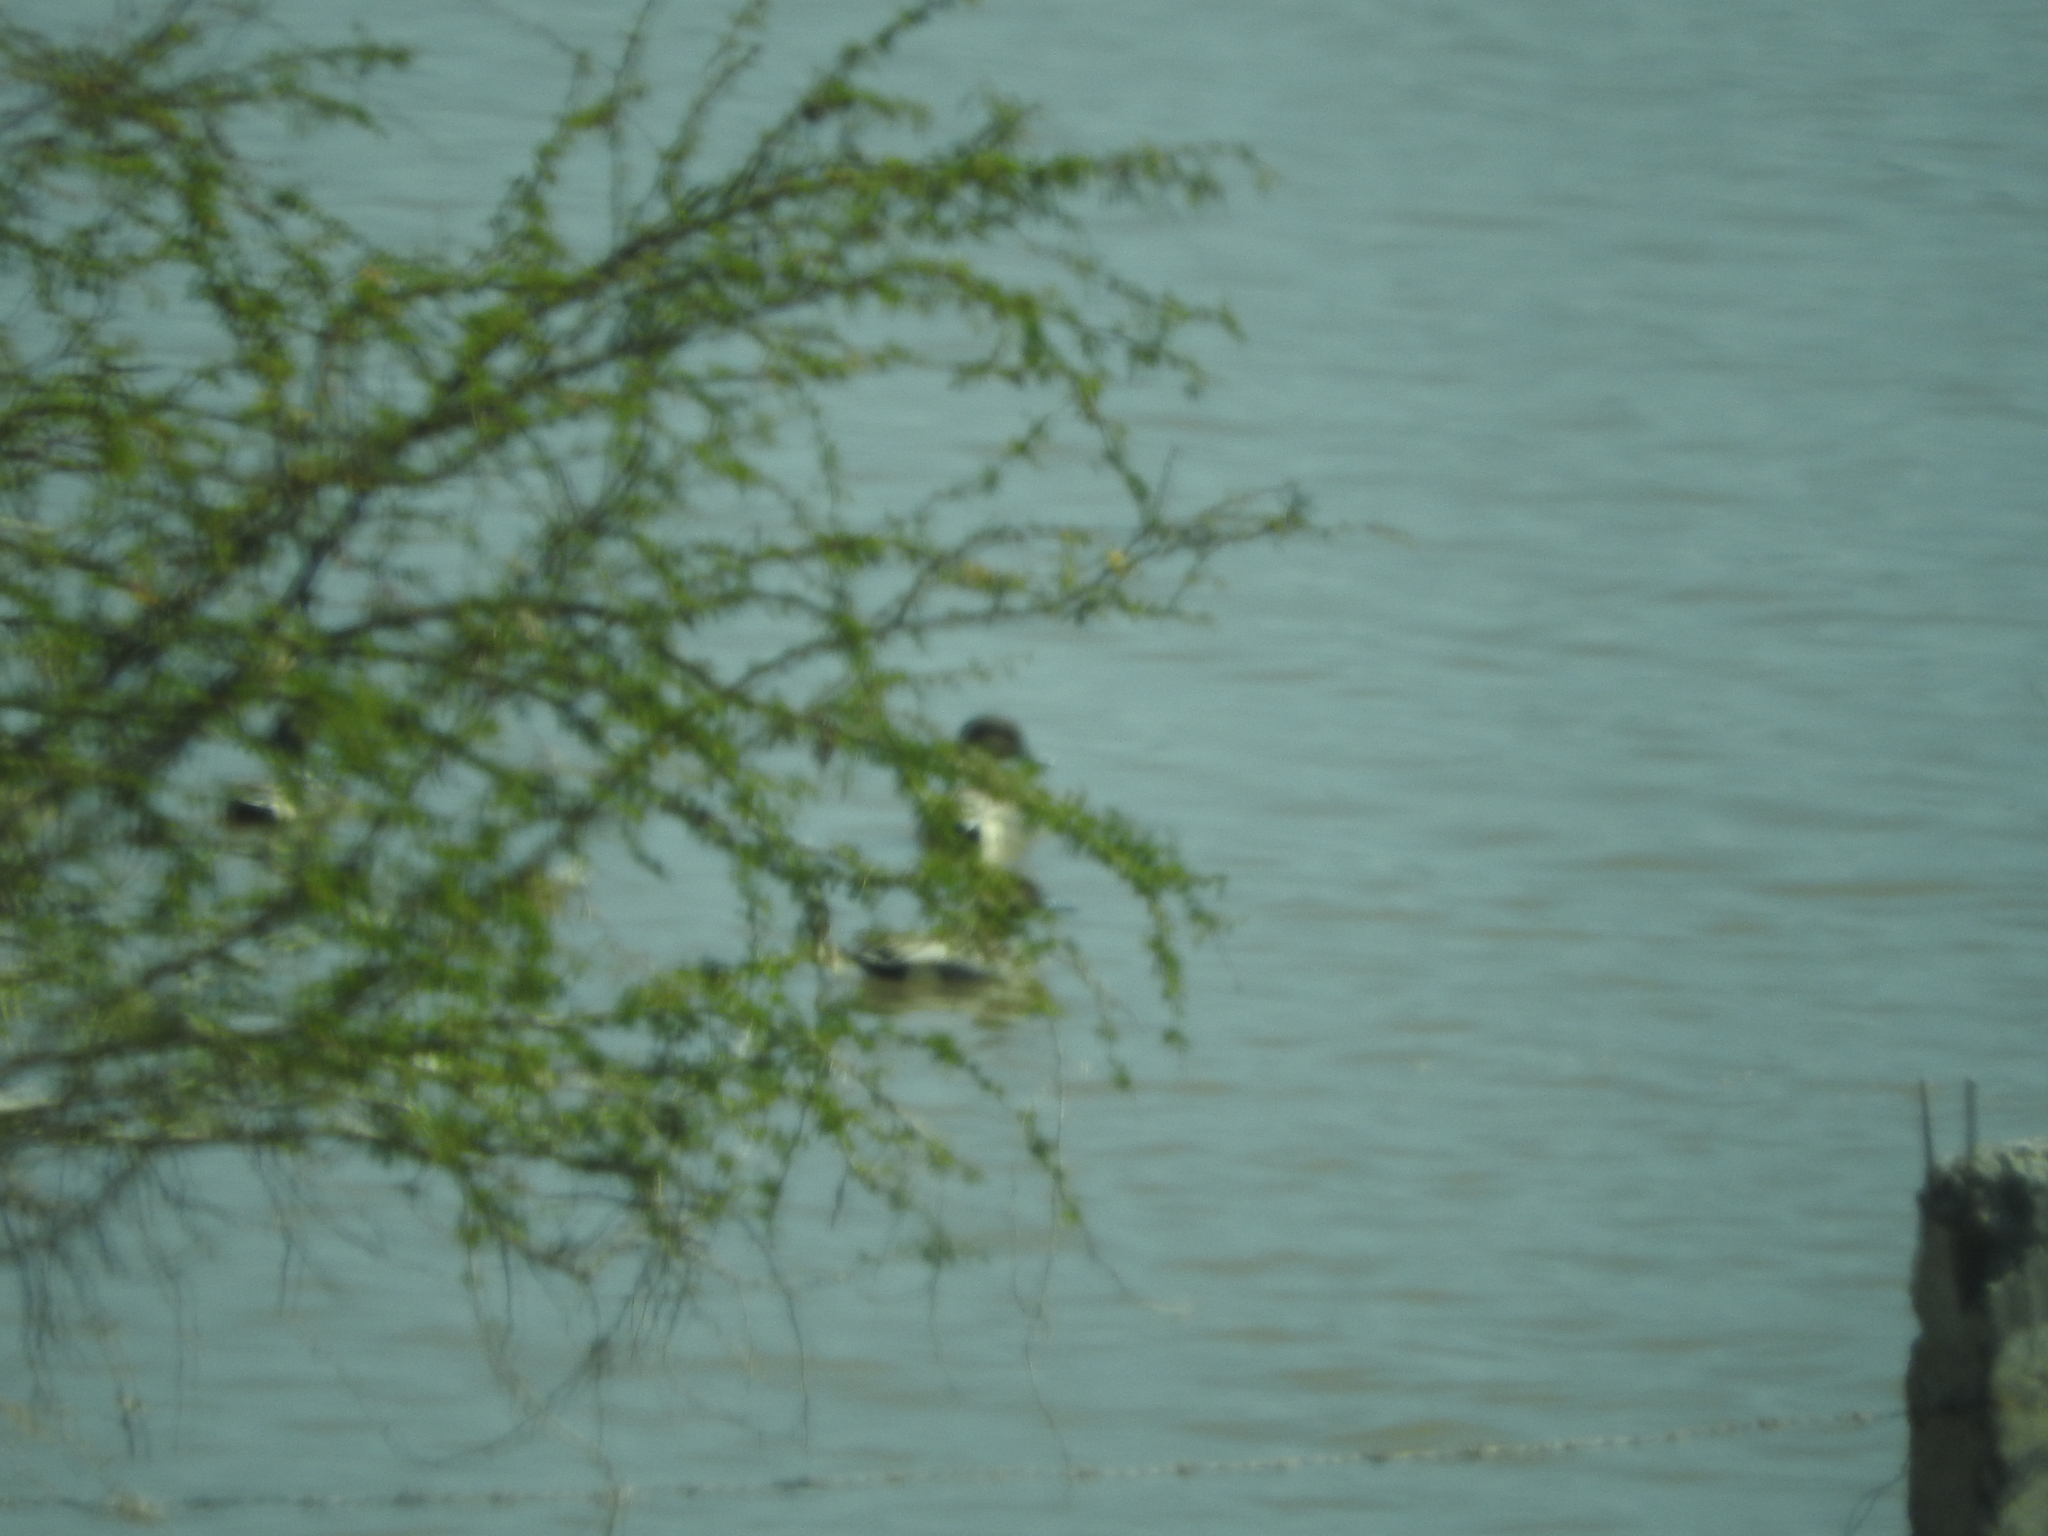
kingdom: Animalia
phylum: Chordata
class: Aves
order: Anseriformes
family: Anatidae
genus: Anas
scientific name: Anas acuta
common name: Northern pintail
